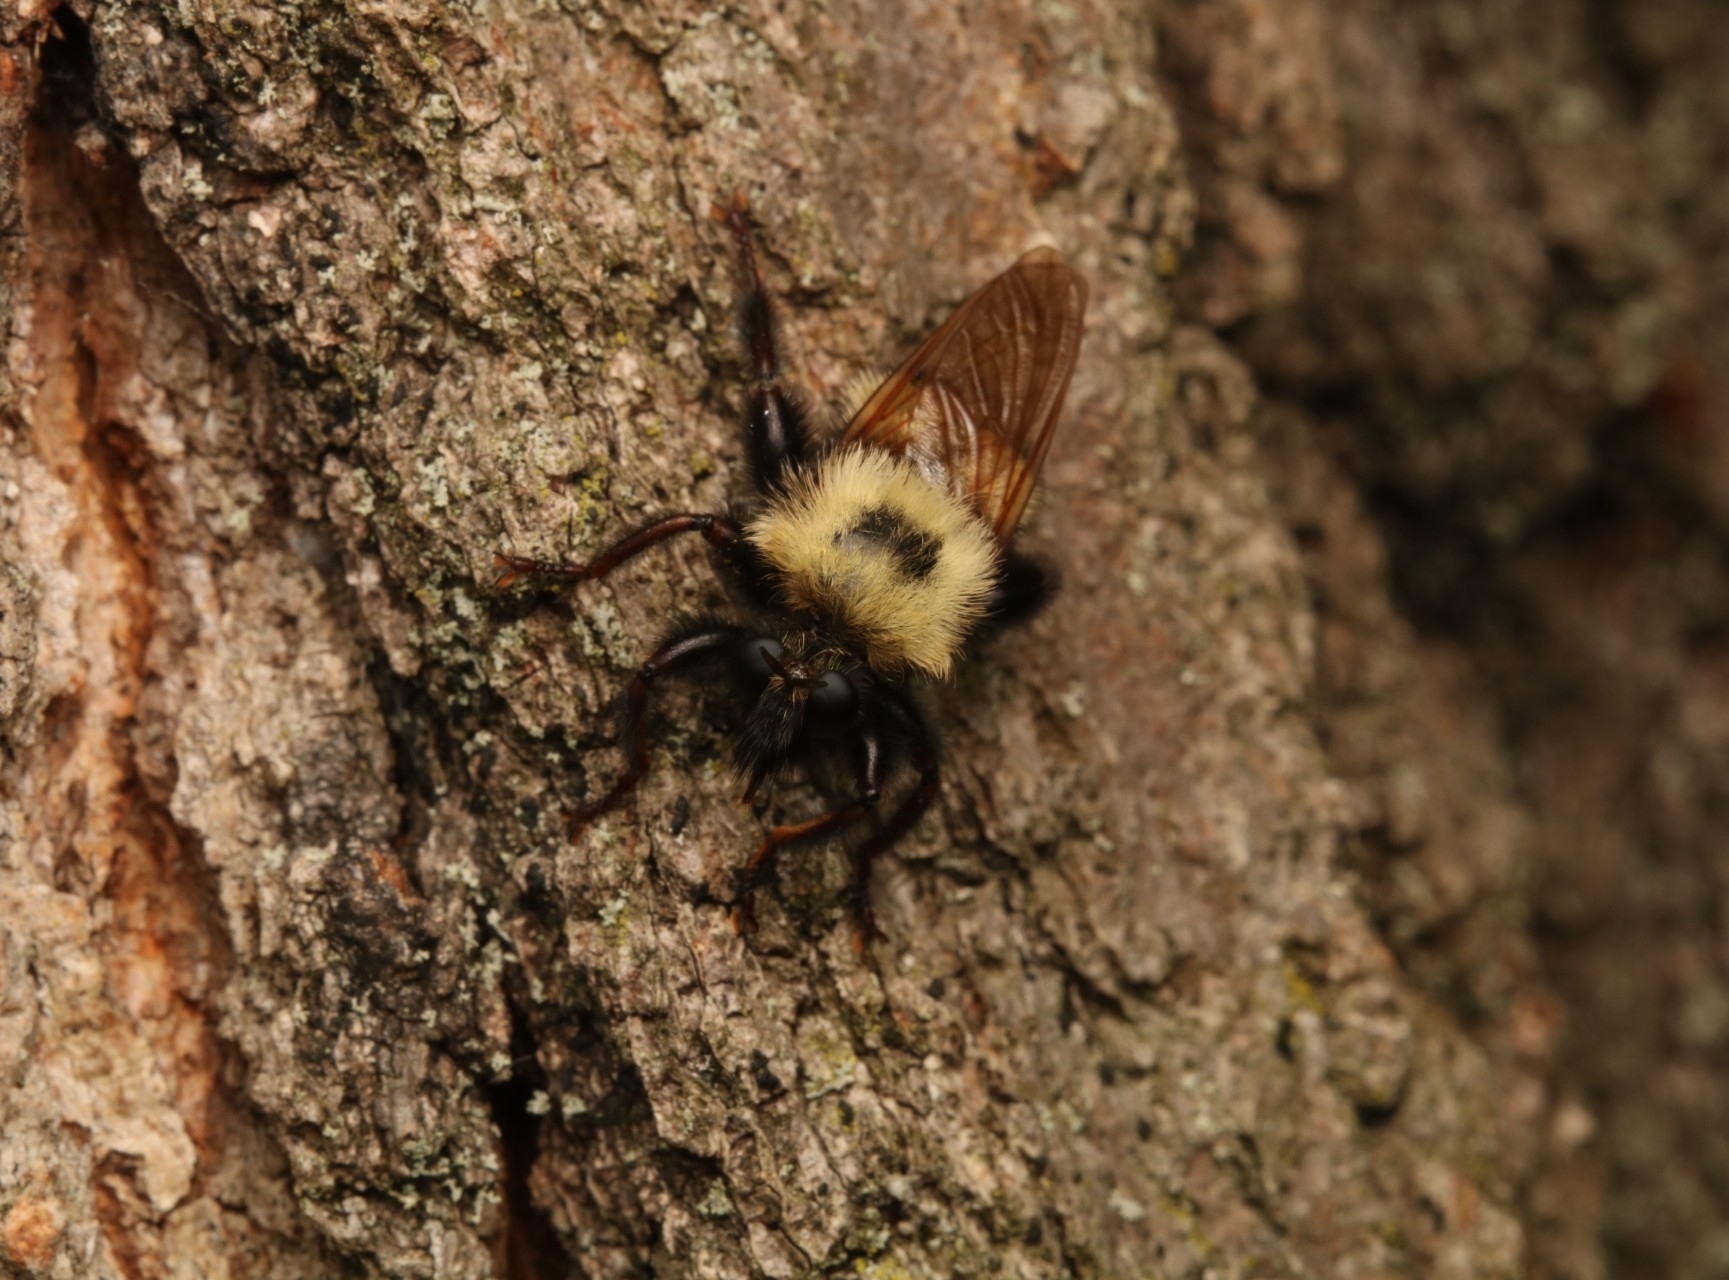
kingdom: Animalia
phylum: Arthropoda
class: Insecta
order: Diptera
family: Asilidae
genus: Laphria
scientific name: Laphria thoracica
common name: Bumble bee mimic robber fly
